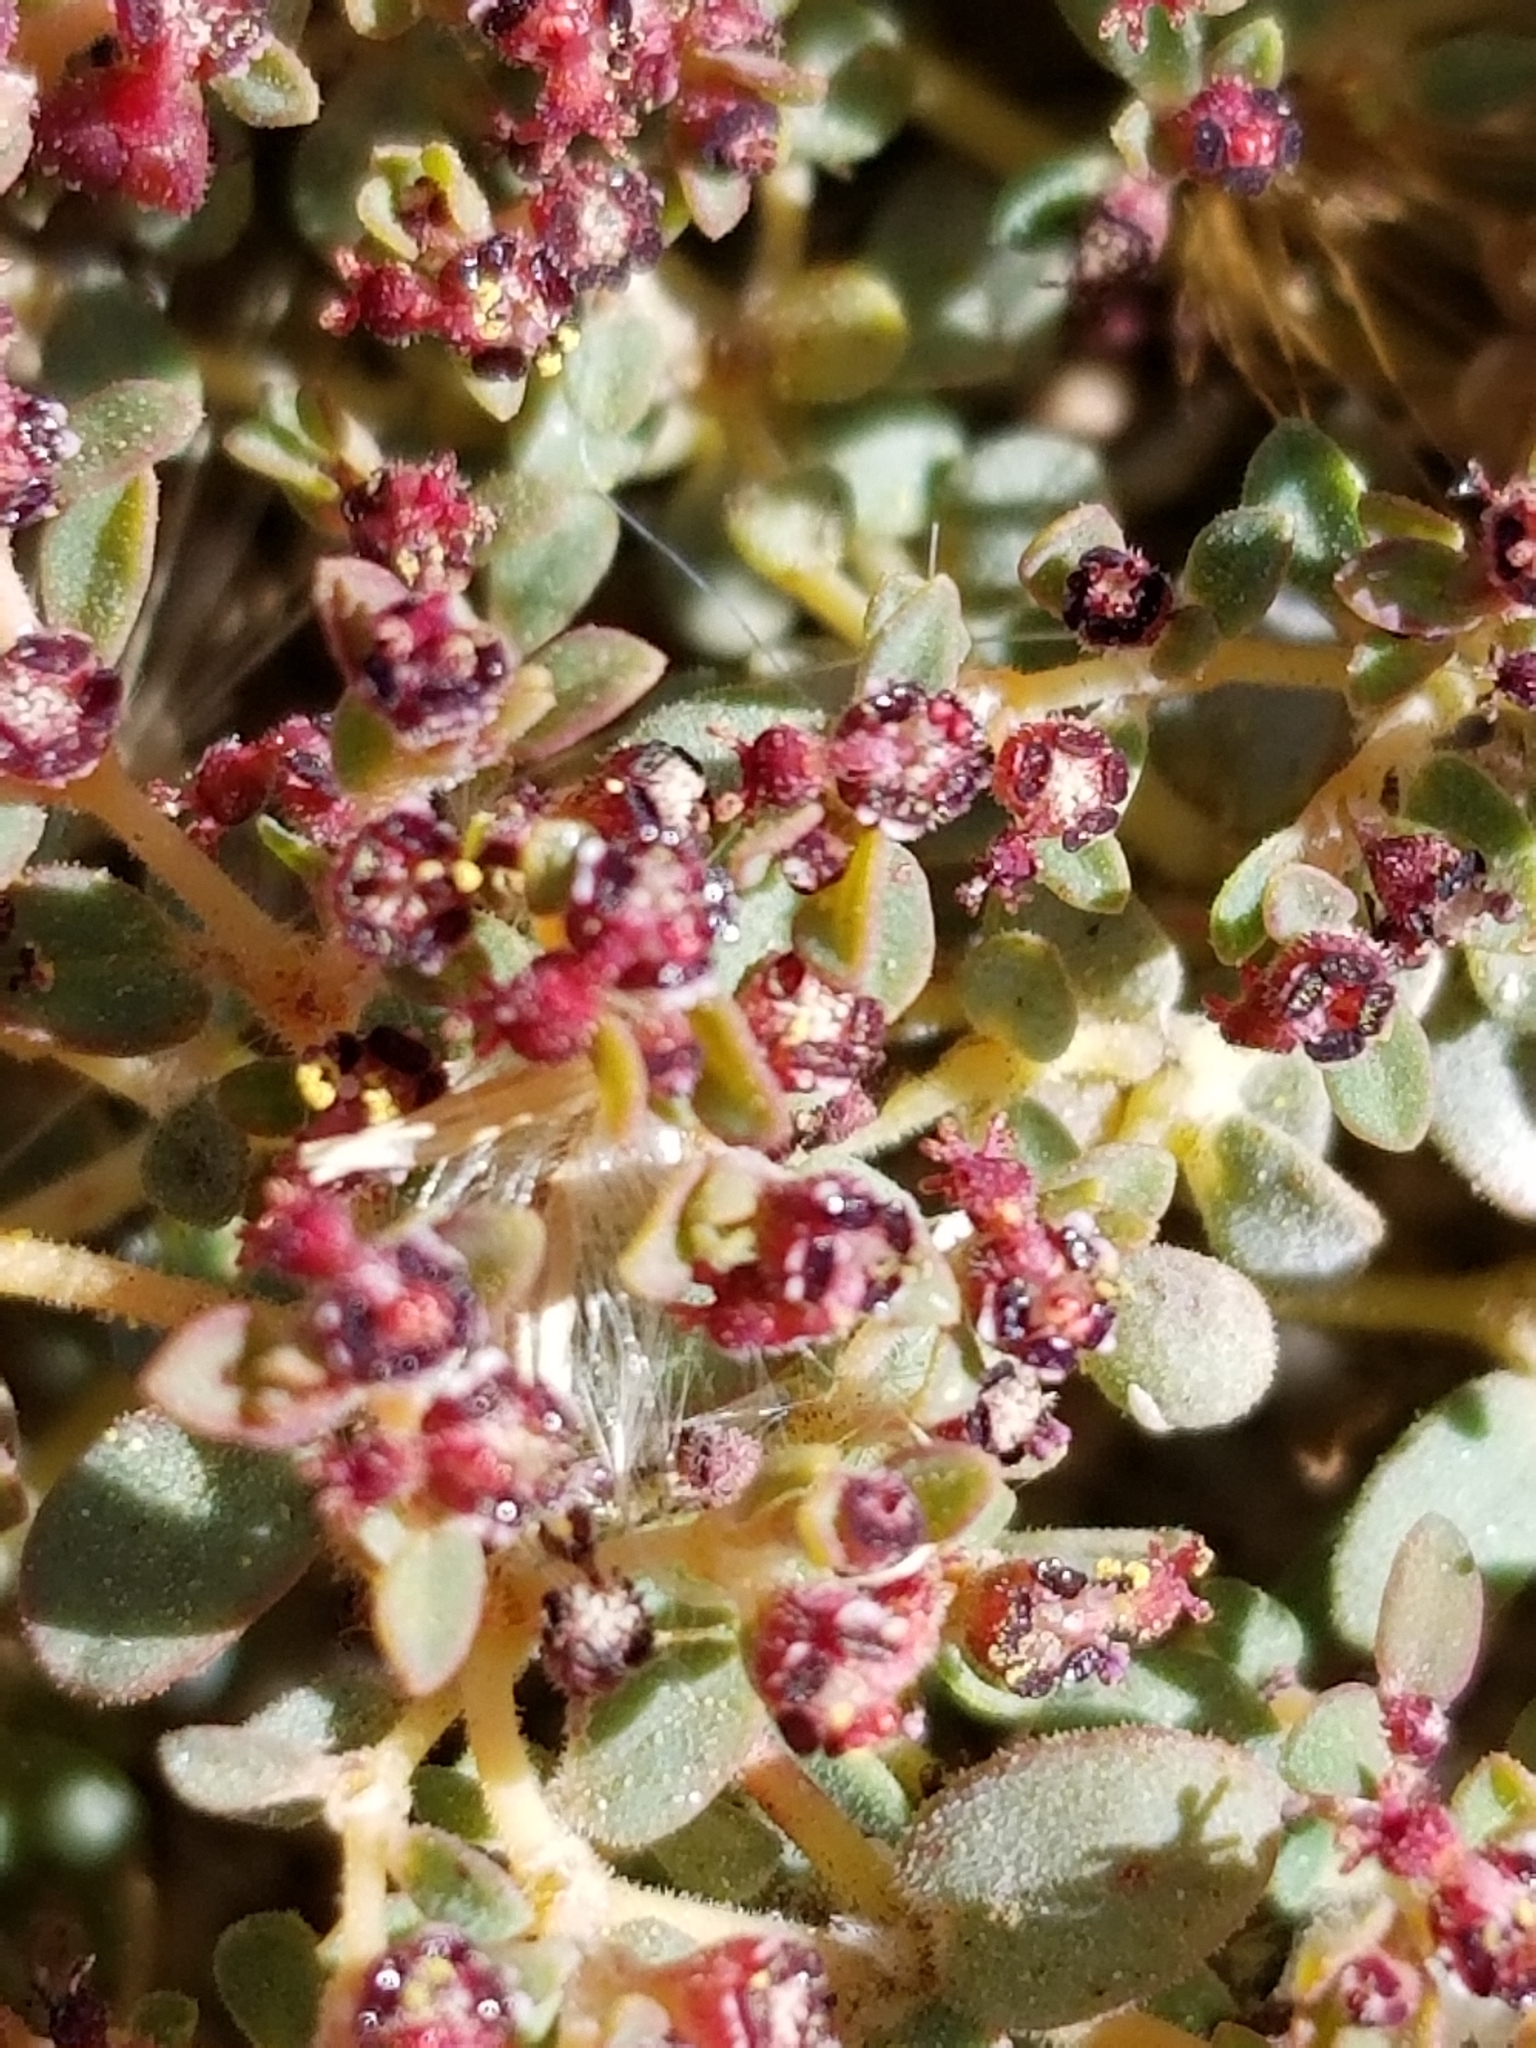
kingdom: Plantae
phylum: Tracheophyta
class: Magnoliopsida
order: Malpighiales
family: Euphorbiaceae
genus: Euphorbia
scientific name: Euphorbia polycarpa
